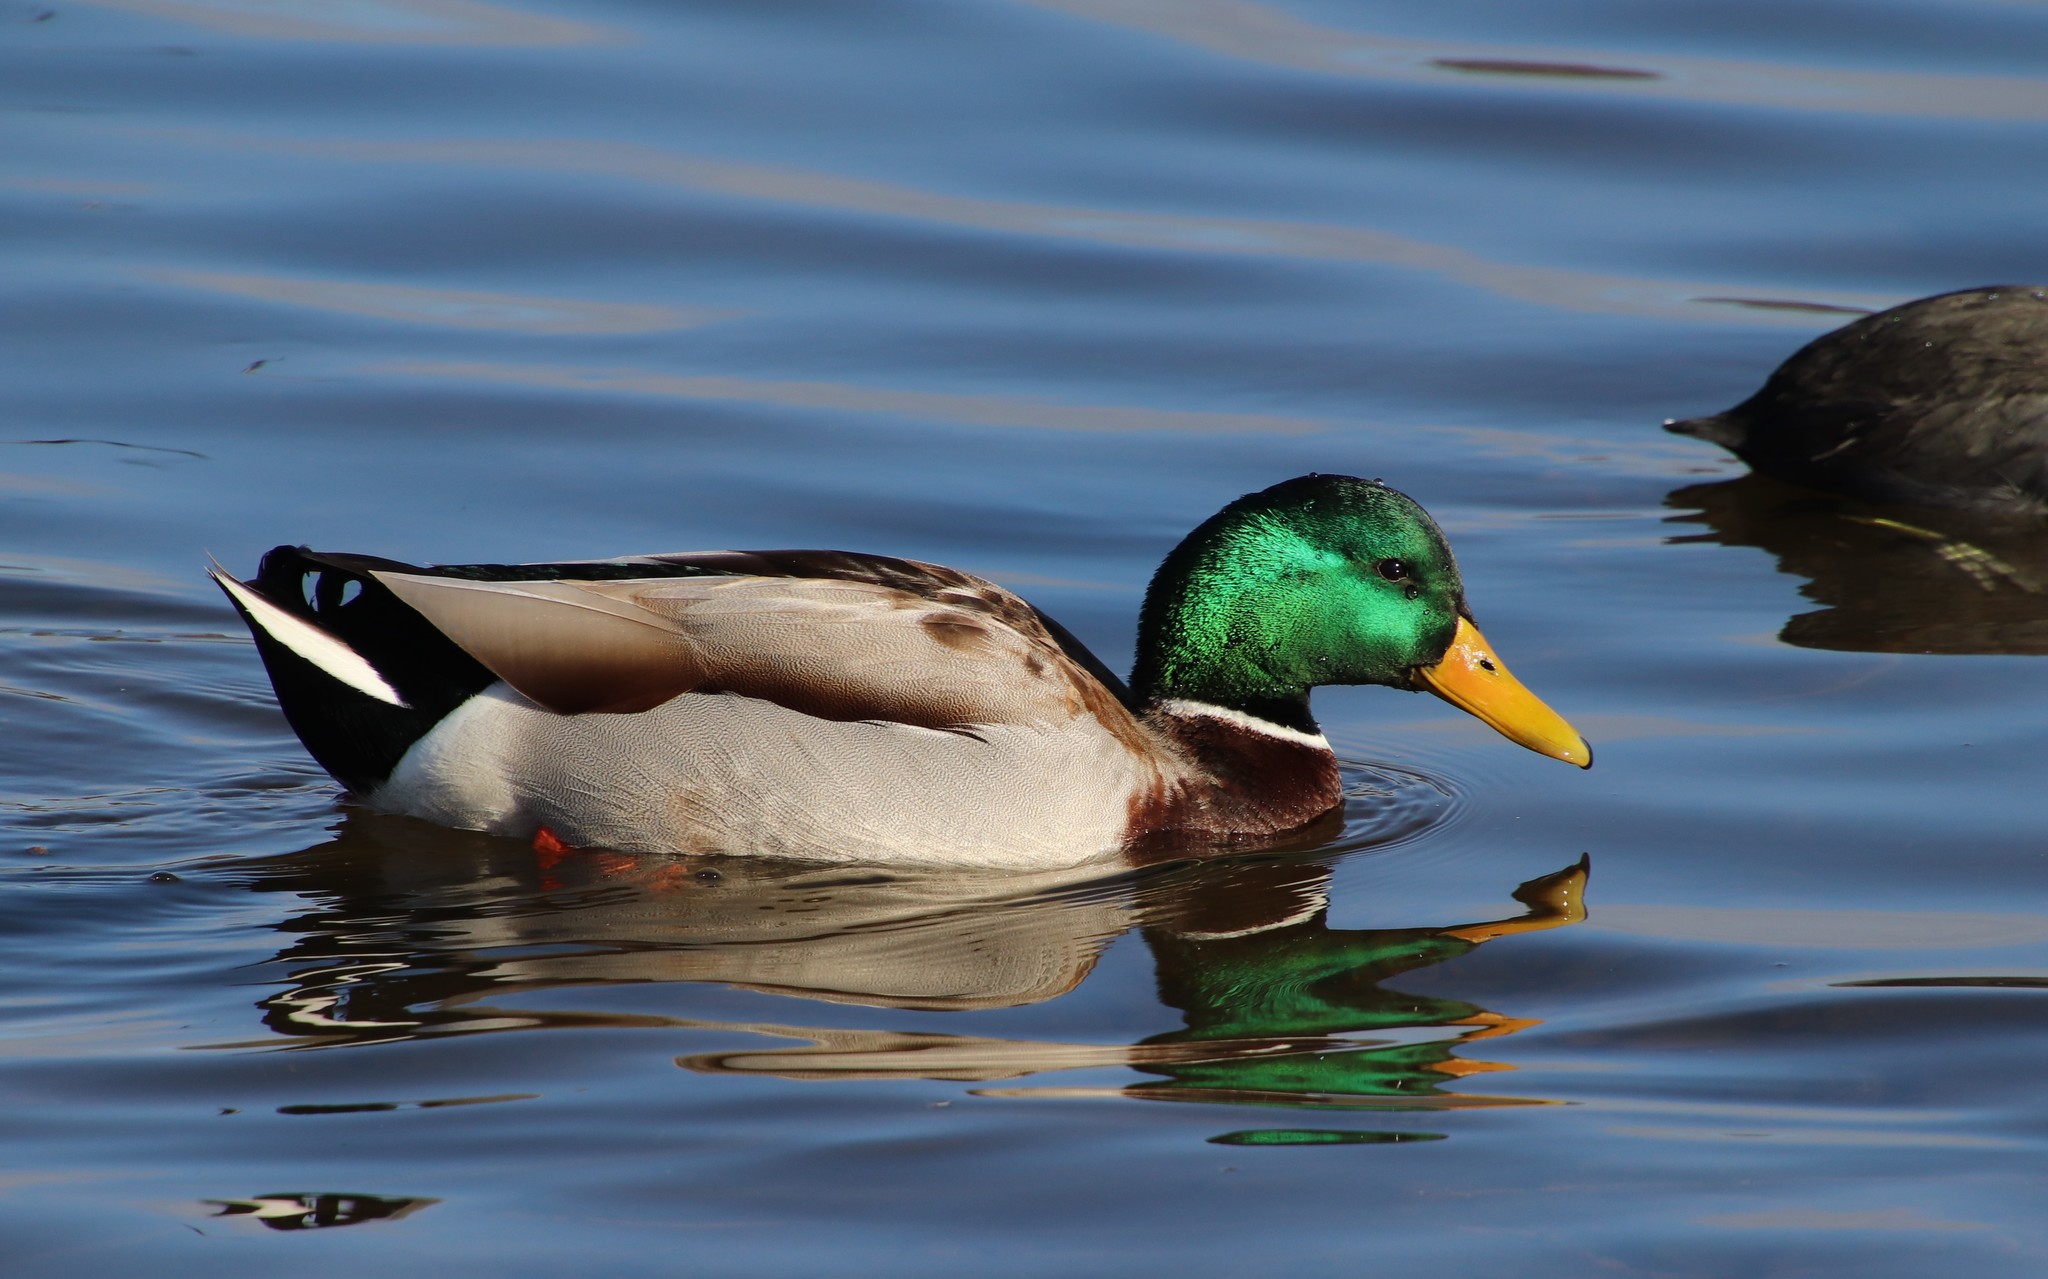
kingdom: Animalia
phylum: Chordata
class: Aves
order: Anseriformes
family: Anatidae
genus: Anas
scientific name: Anas platyrhynchos
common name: Mallard
